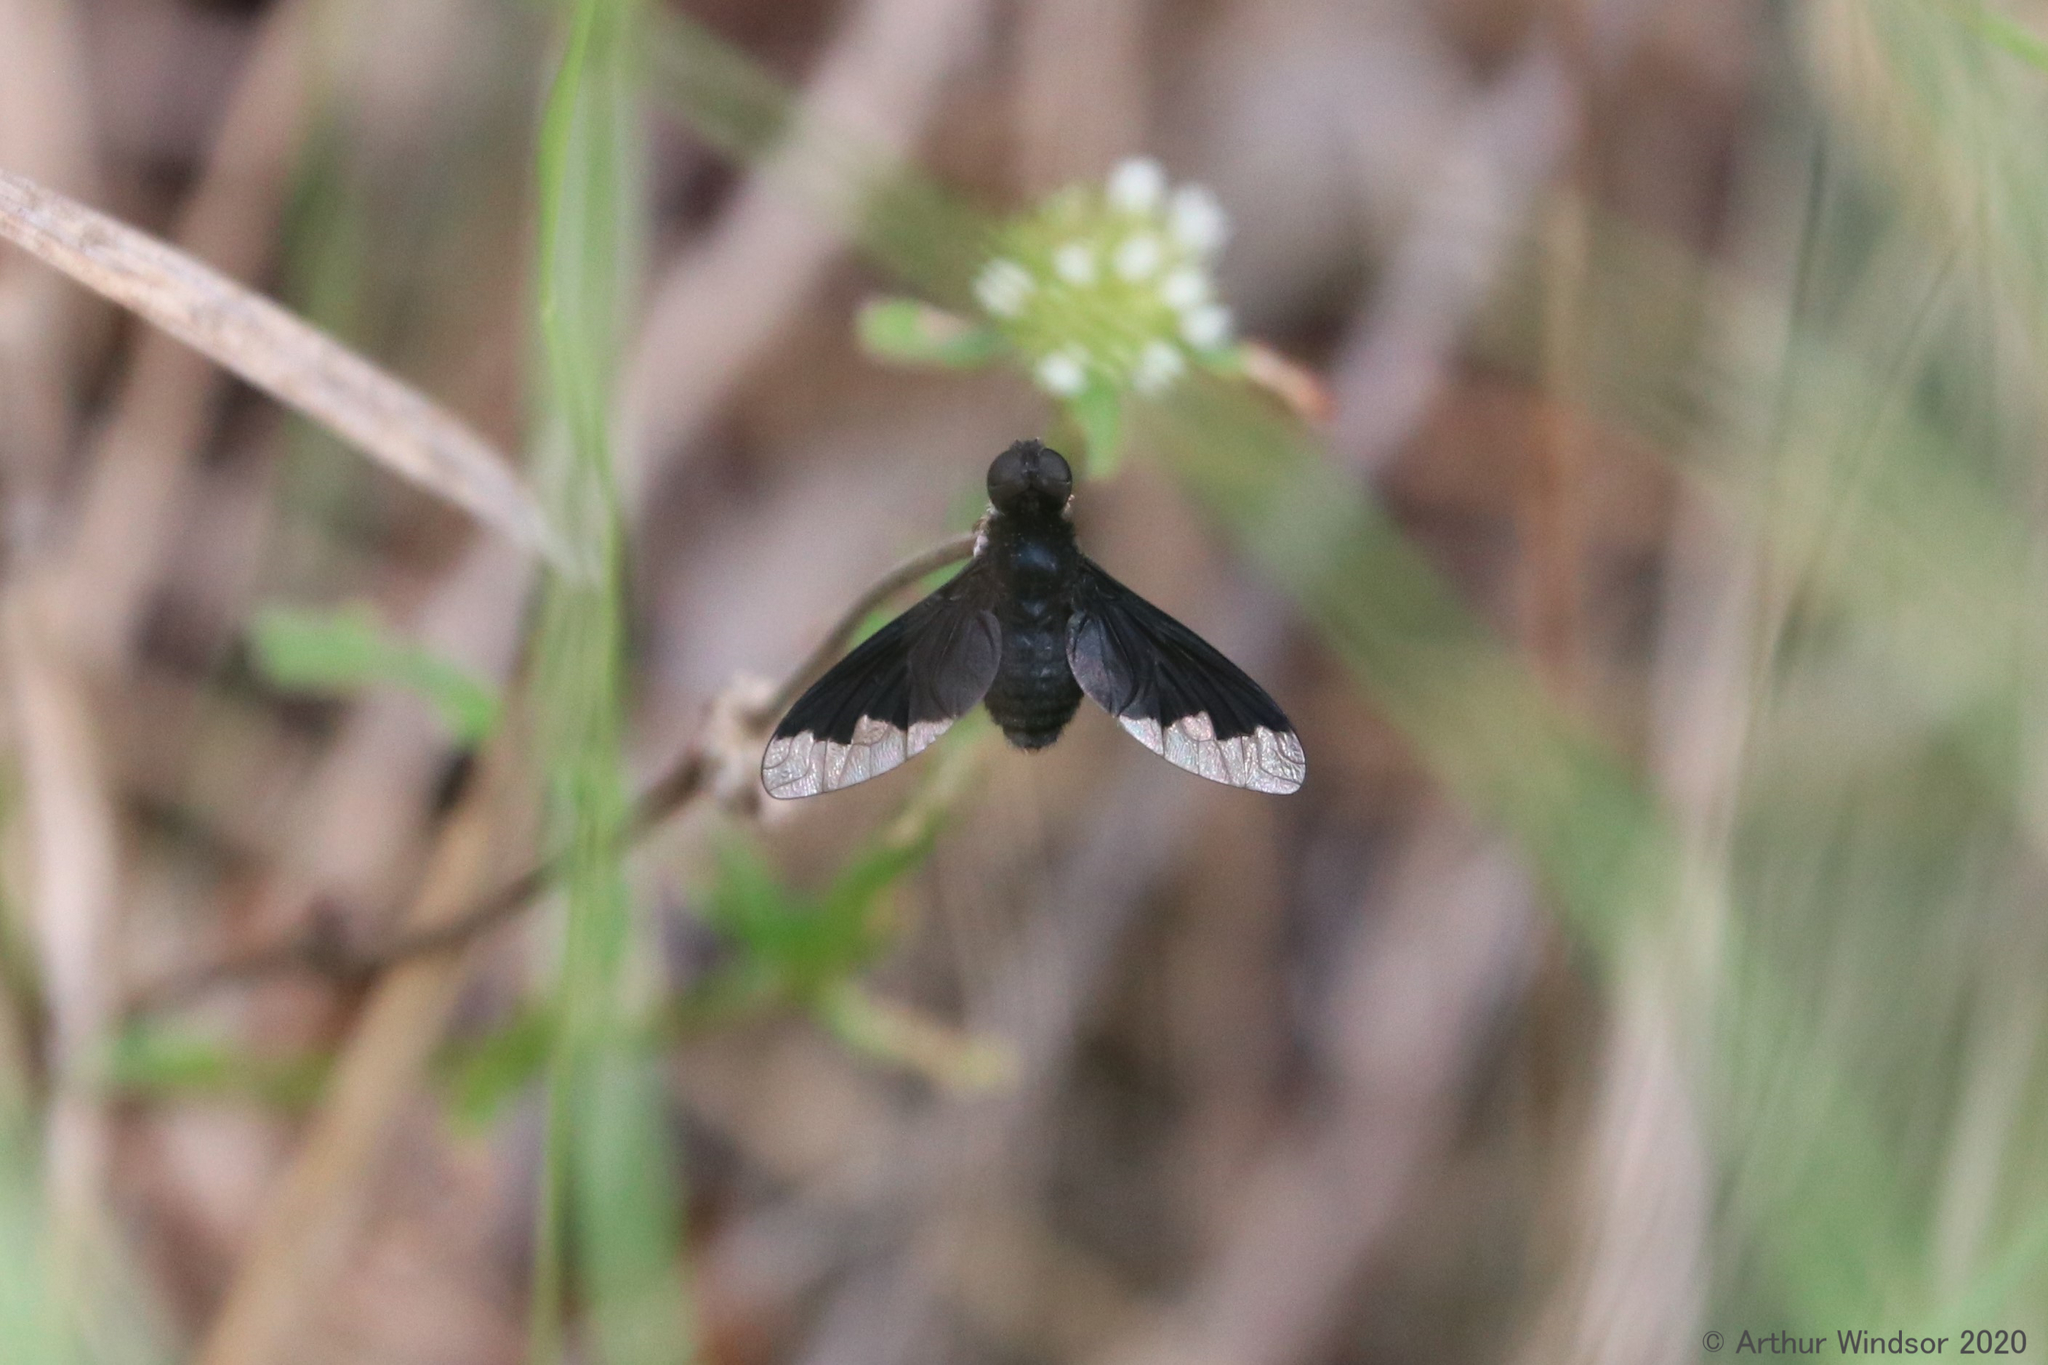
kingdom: Animalia
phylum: Arthropoda
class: Insecta
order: Diptera
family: Bombyliidae
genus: Anthrax
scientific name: Anthrax analis
